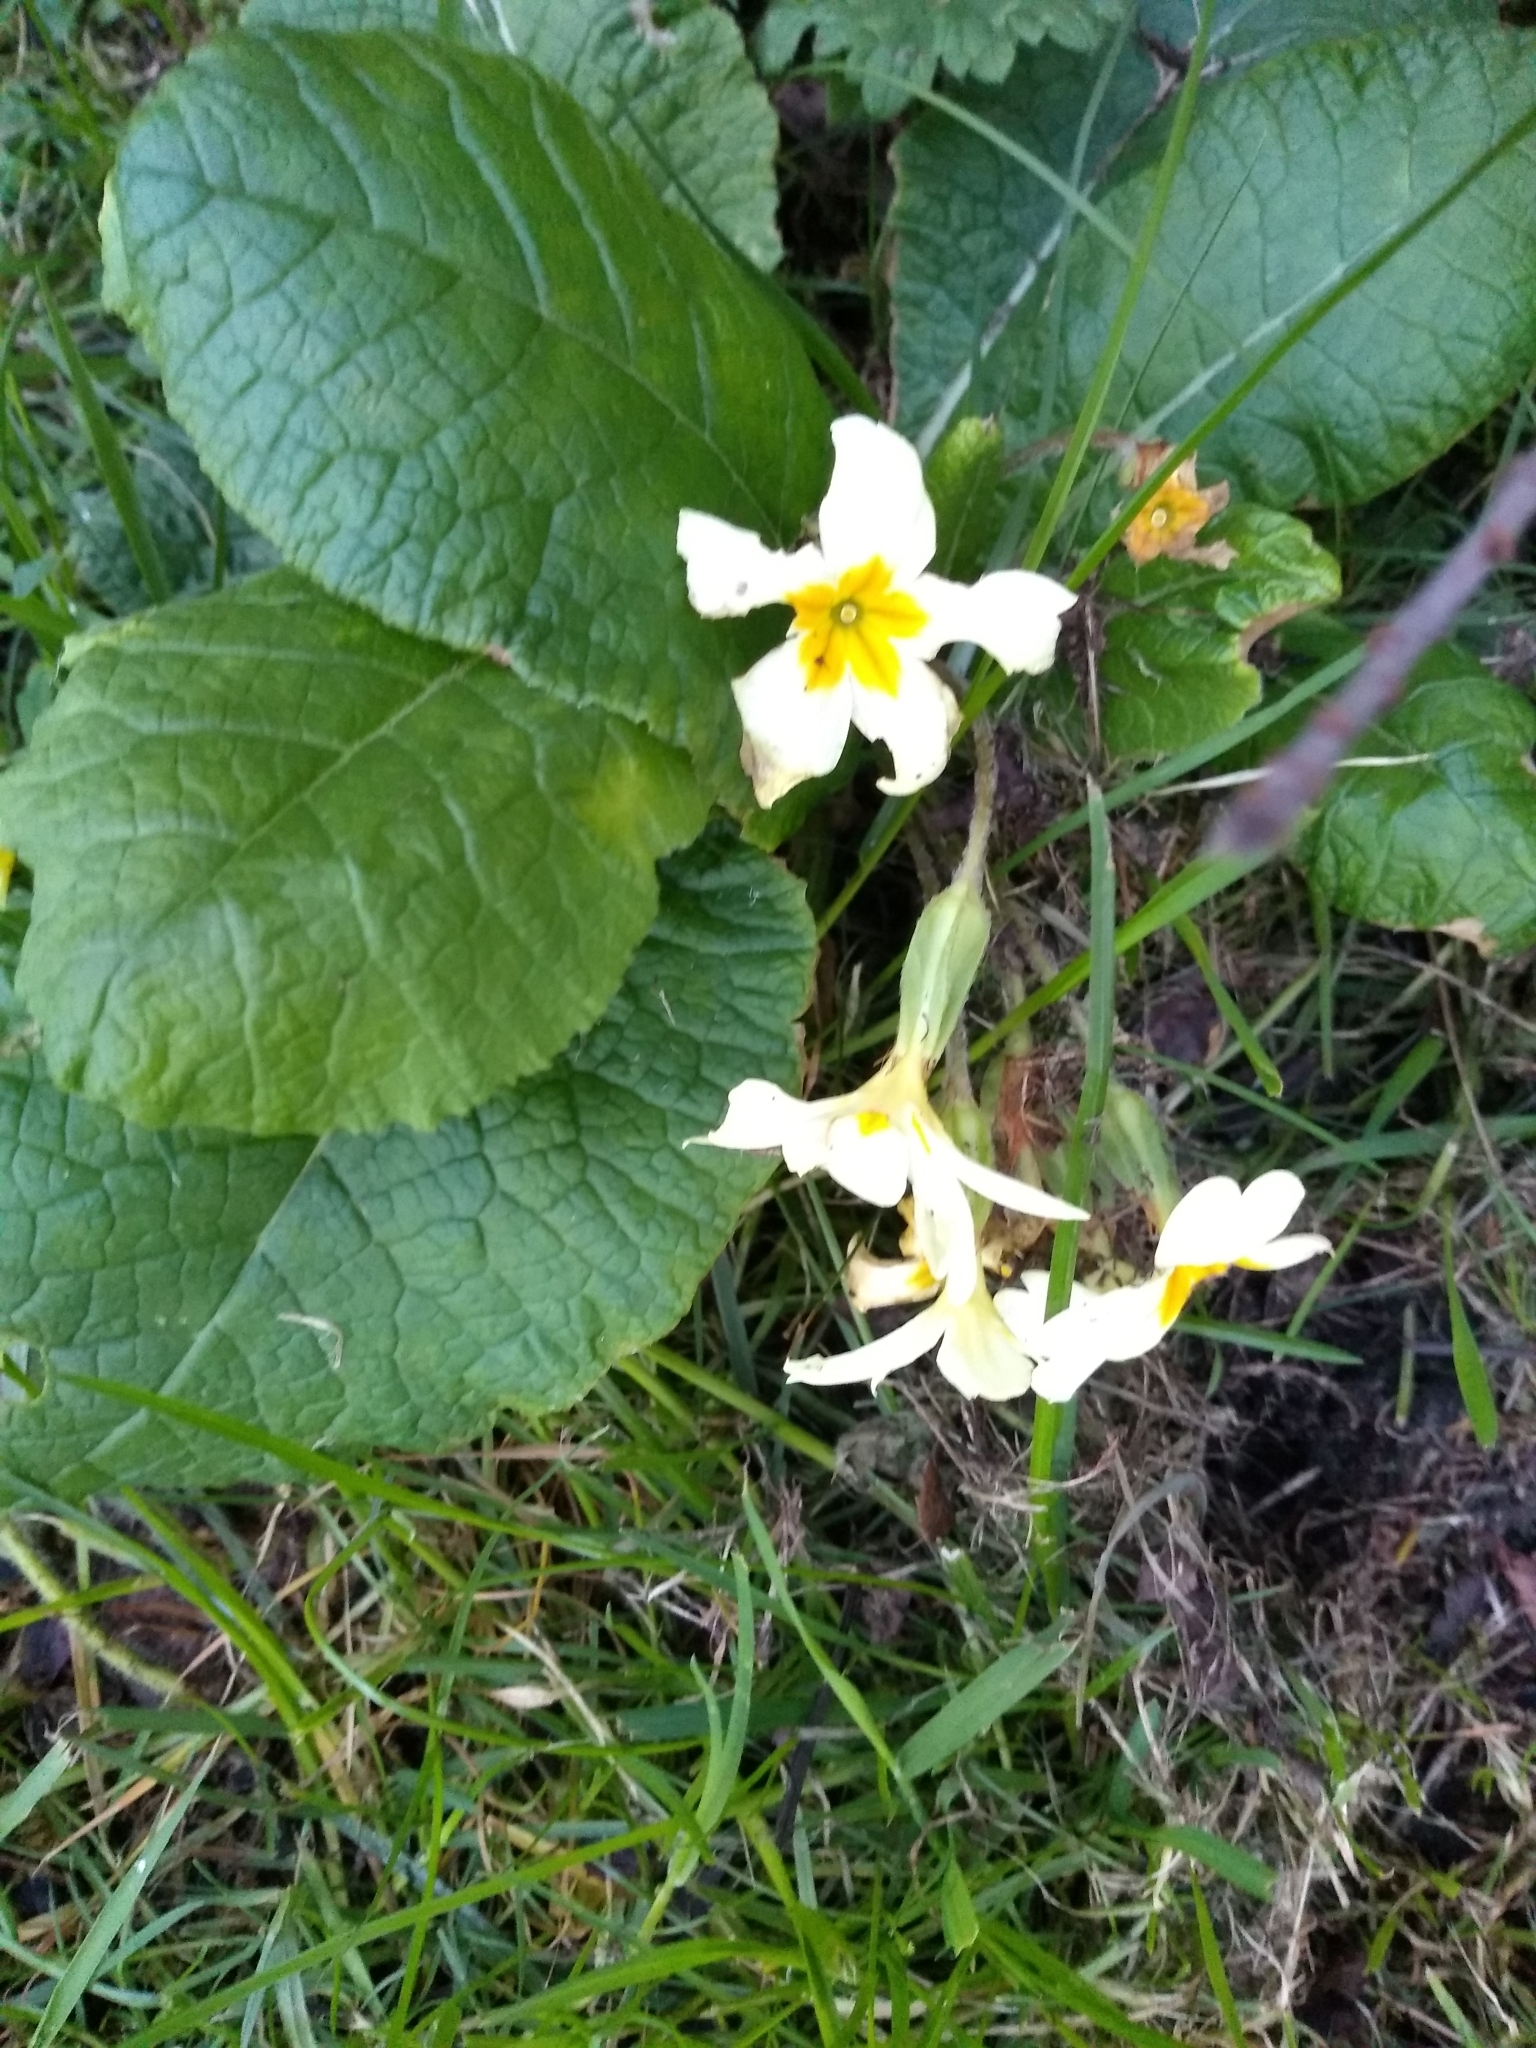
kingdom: Plantae
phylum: Tracheophyta
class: Magnoliopsida
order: Ericales
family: Primulaceae
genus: Primula
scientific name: Primula vulgaris
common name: Primrose
